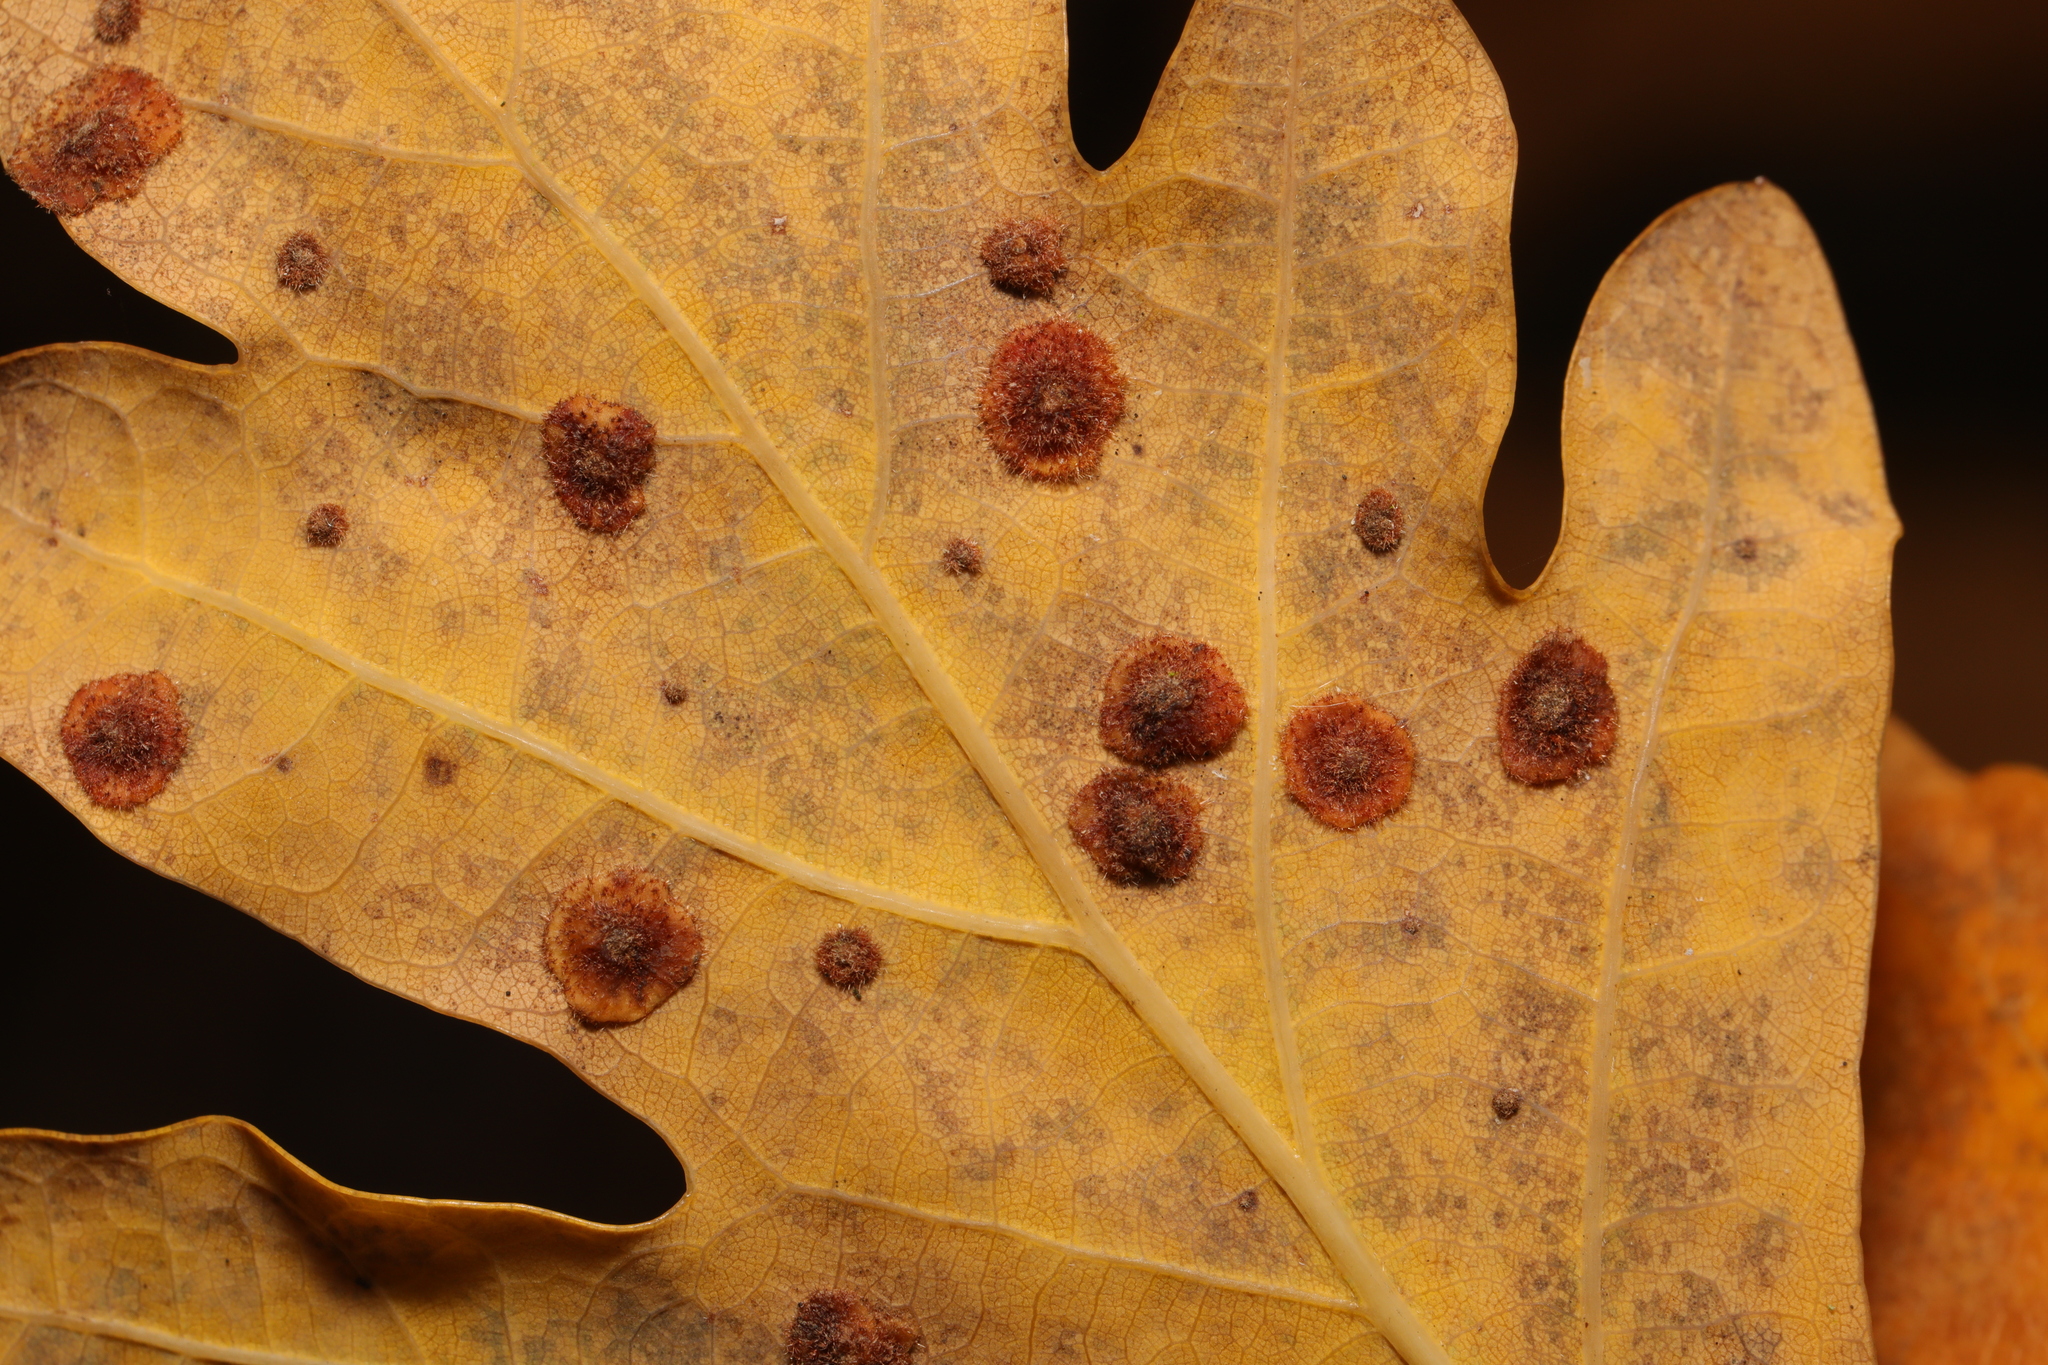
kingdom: Animalia
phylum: Arthropoda
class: Insecta
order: Hymenoptera
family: Cynipidae
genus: Neuroterus
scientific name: Neuroterus quercusbaccarum
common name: Common spangle gall
